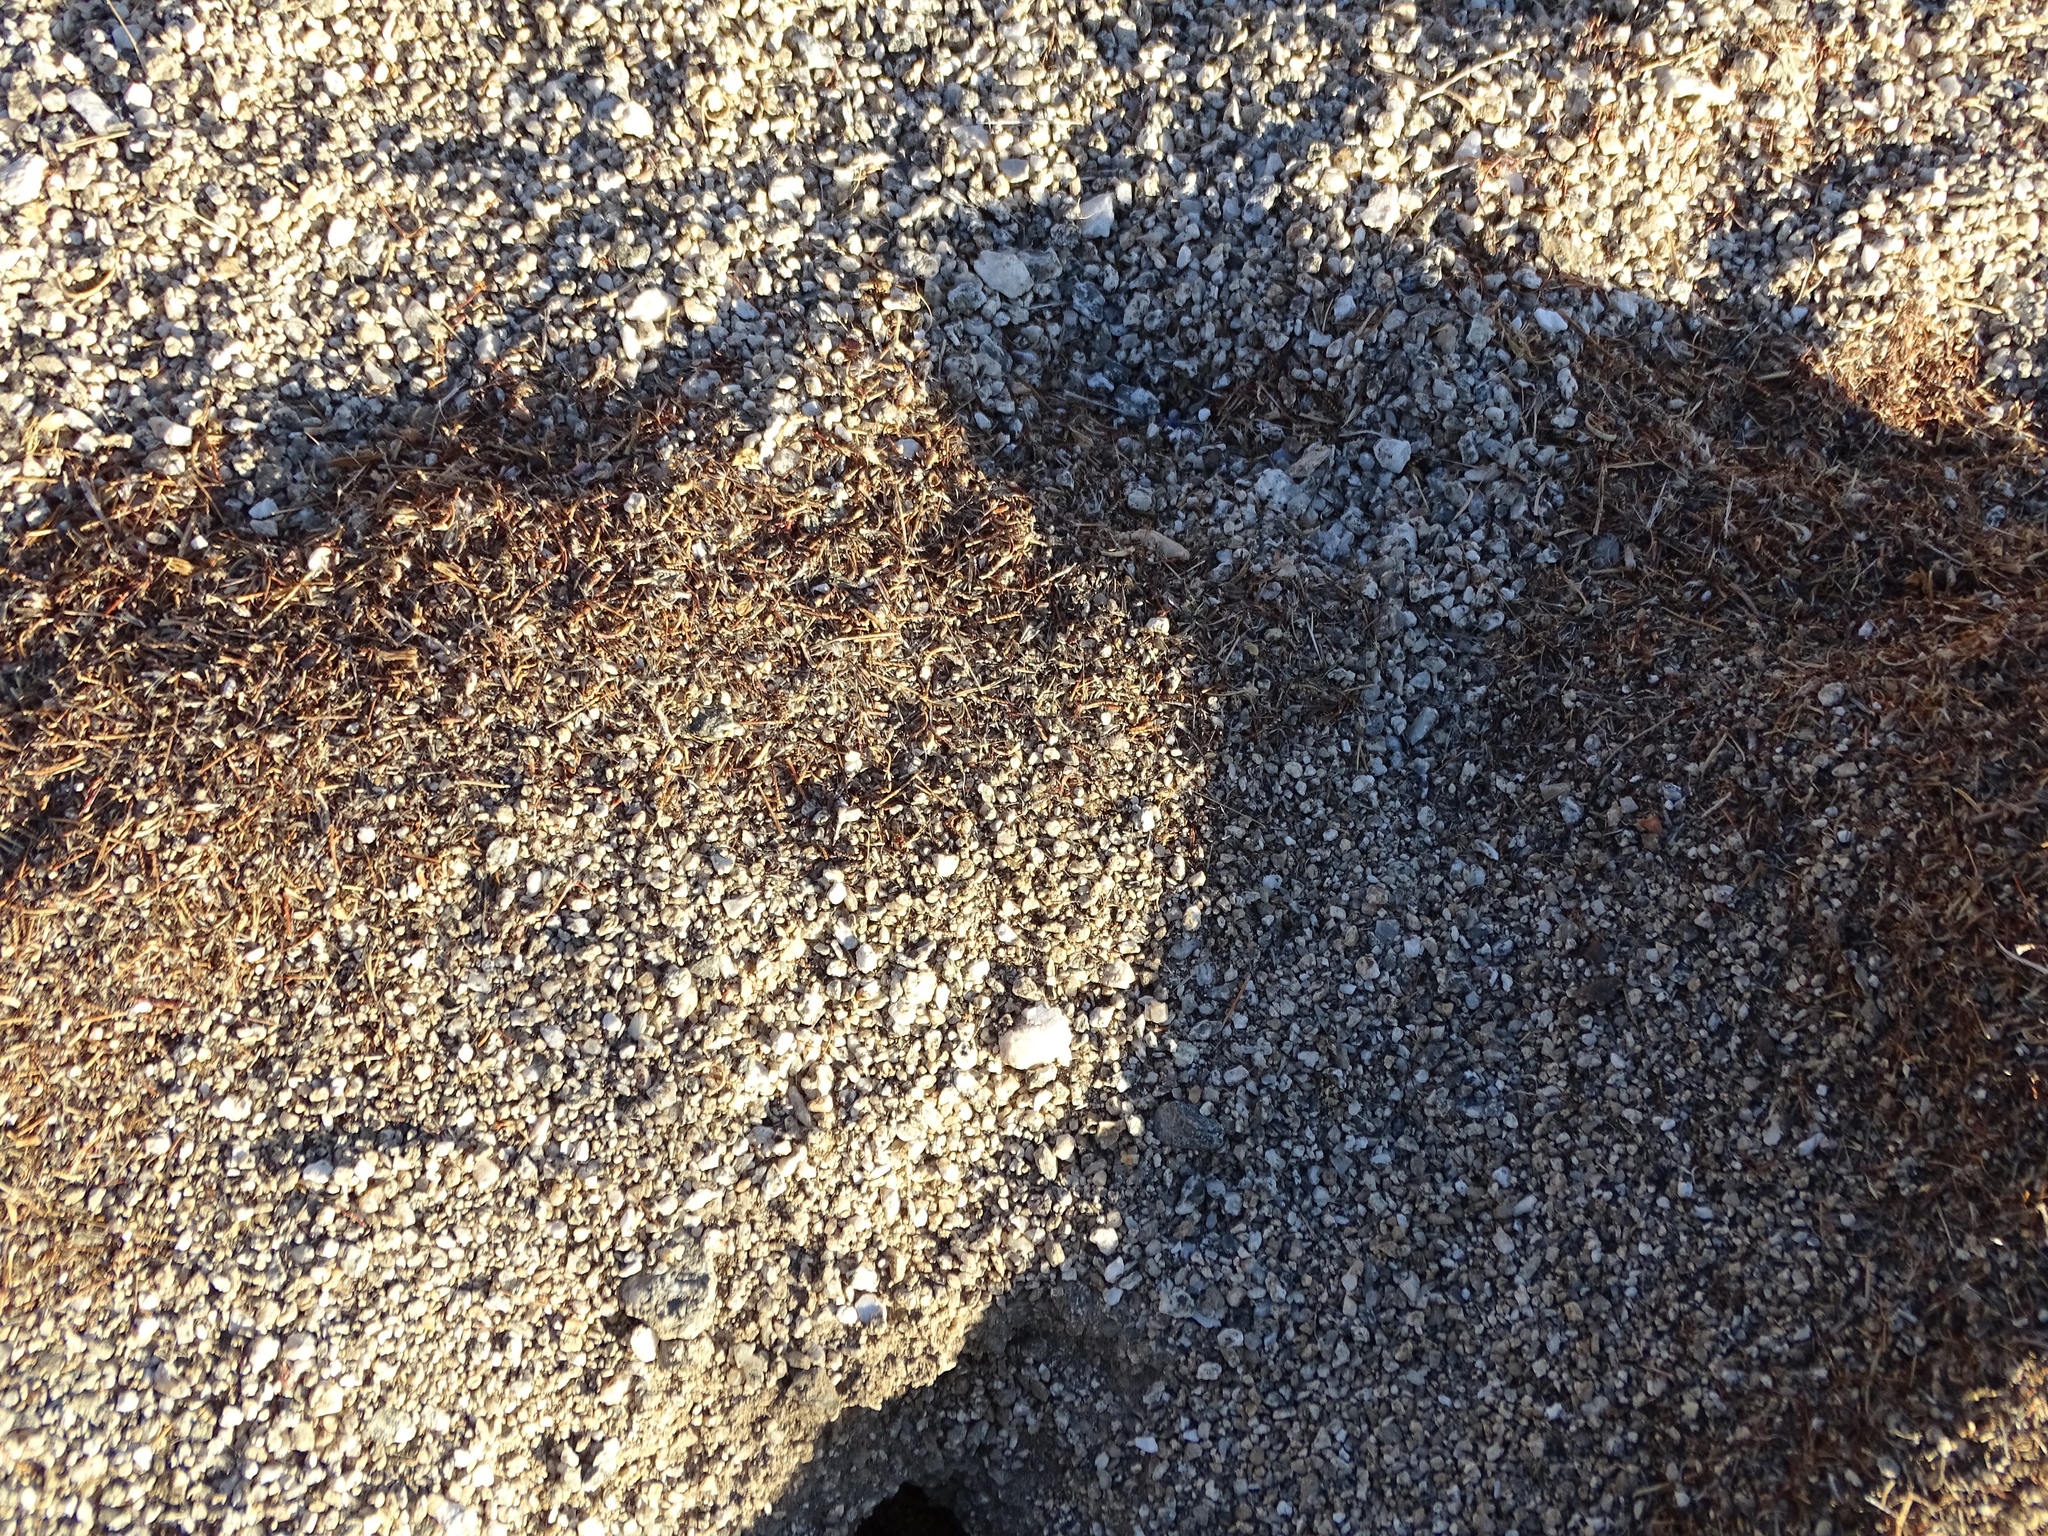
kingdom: Animalia
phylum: Arthropoda
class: Insecta
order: Hymenoptera
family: Formicidae
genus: Messor
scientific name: Messor pergandei
